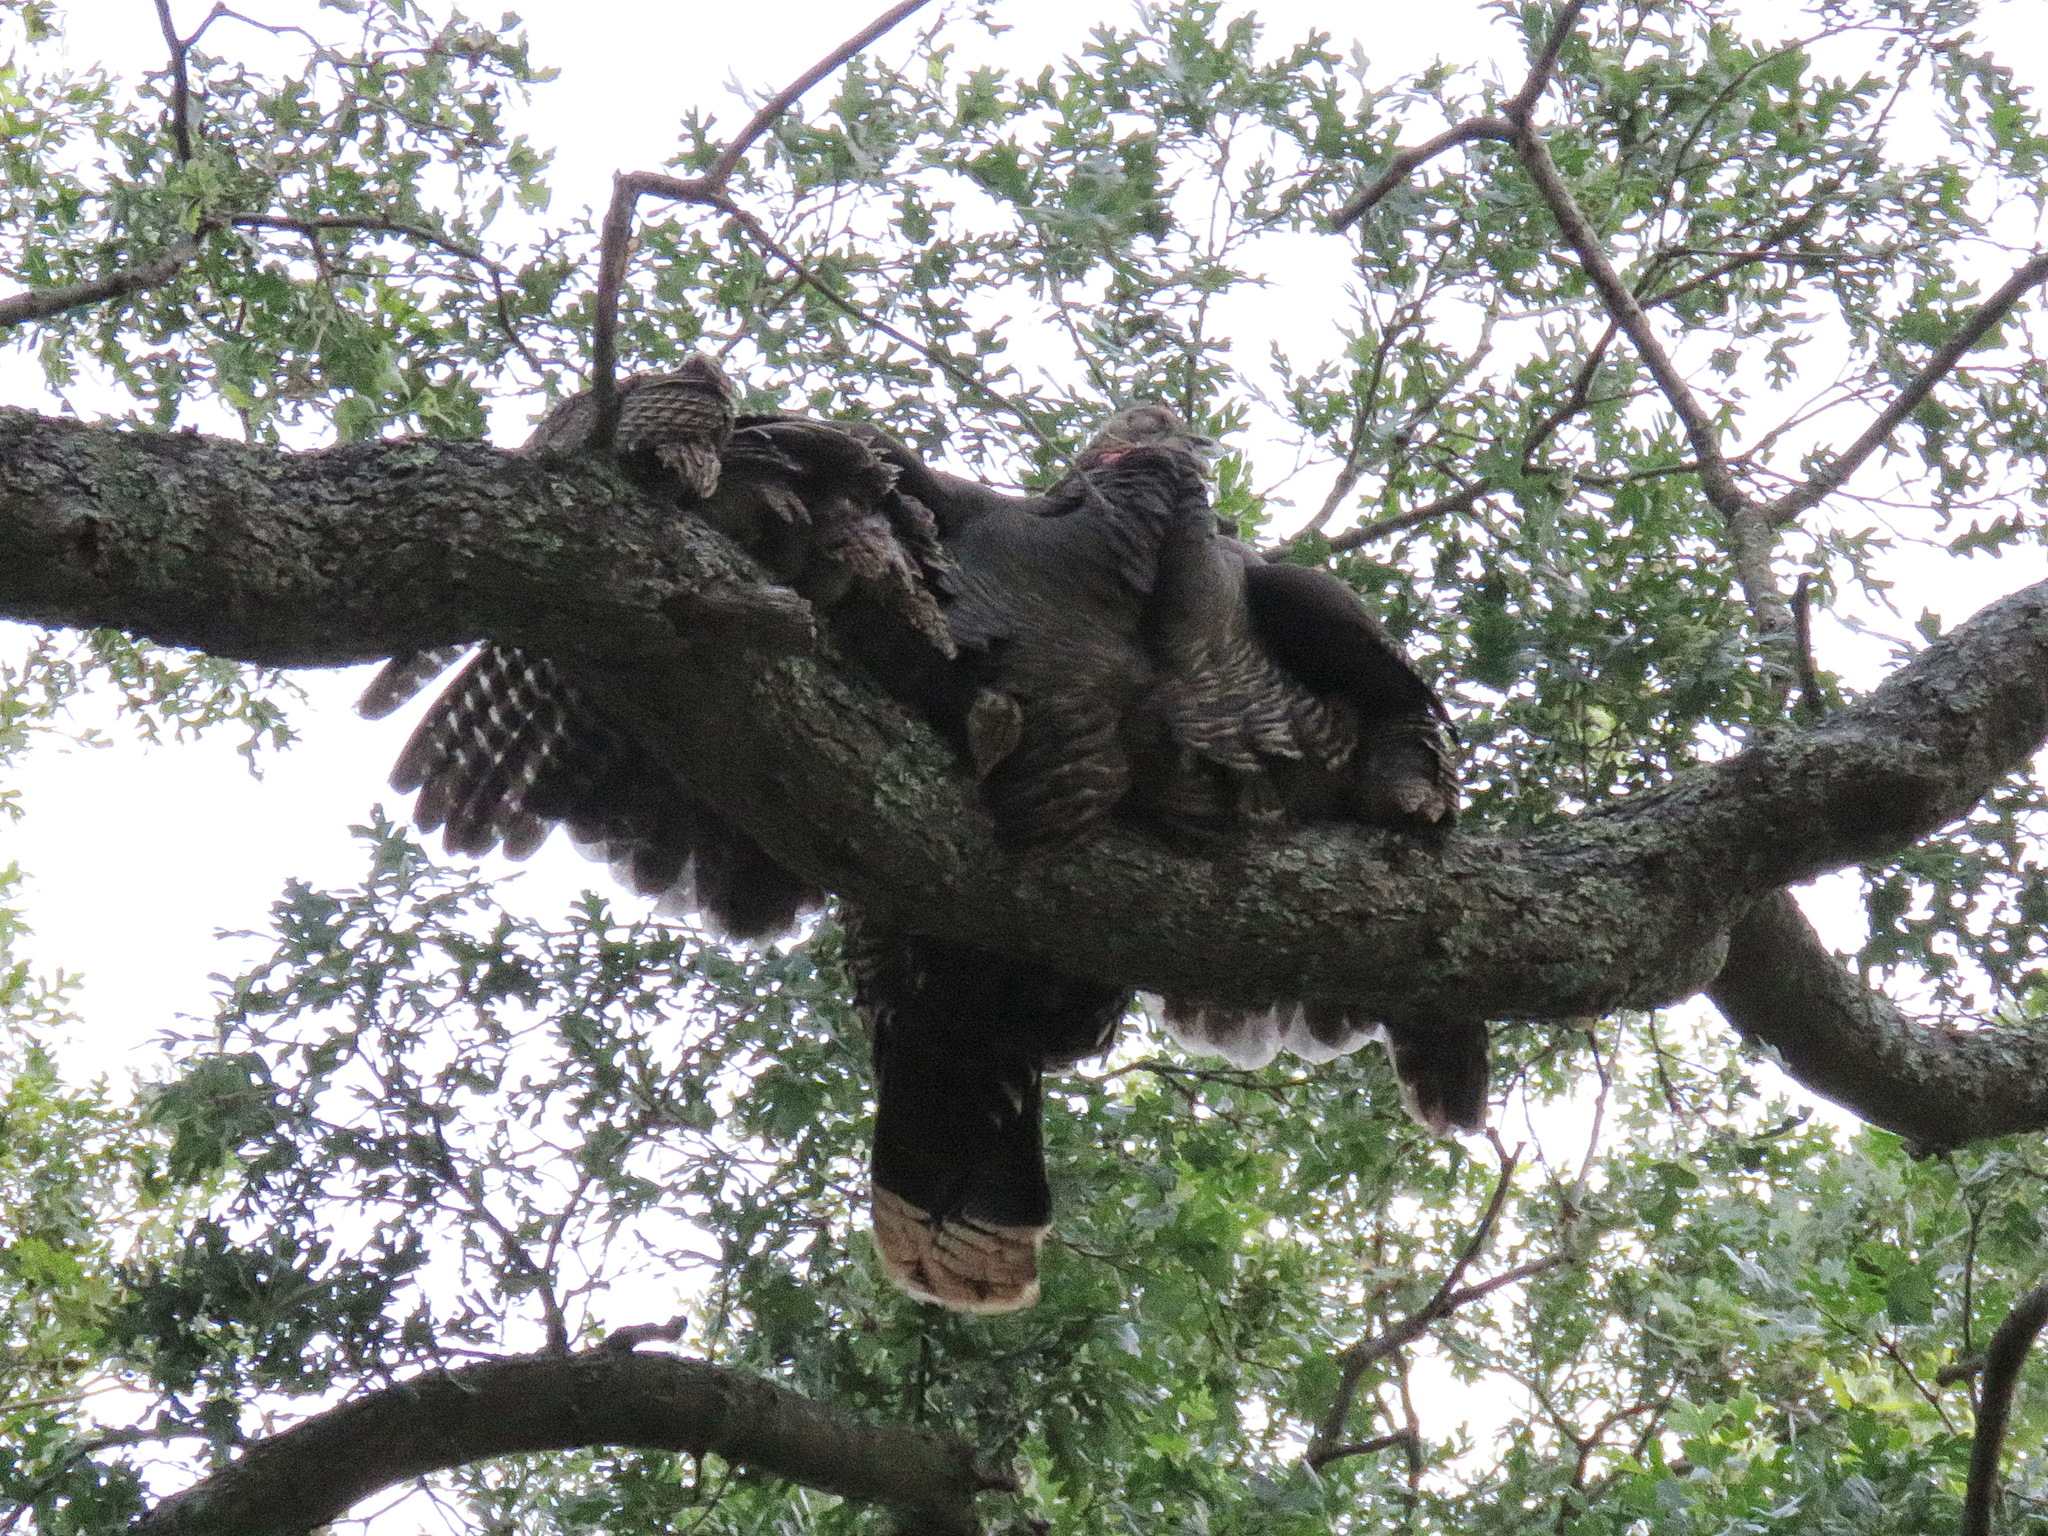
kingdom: Animalia
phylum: Chordata
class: Aves
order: Galliformes
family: Phasianidae
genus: Meleagris
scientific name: Meleagris gallopavo
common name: Wild turkey
